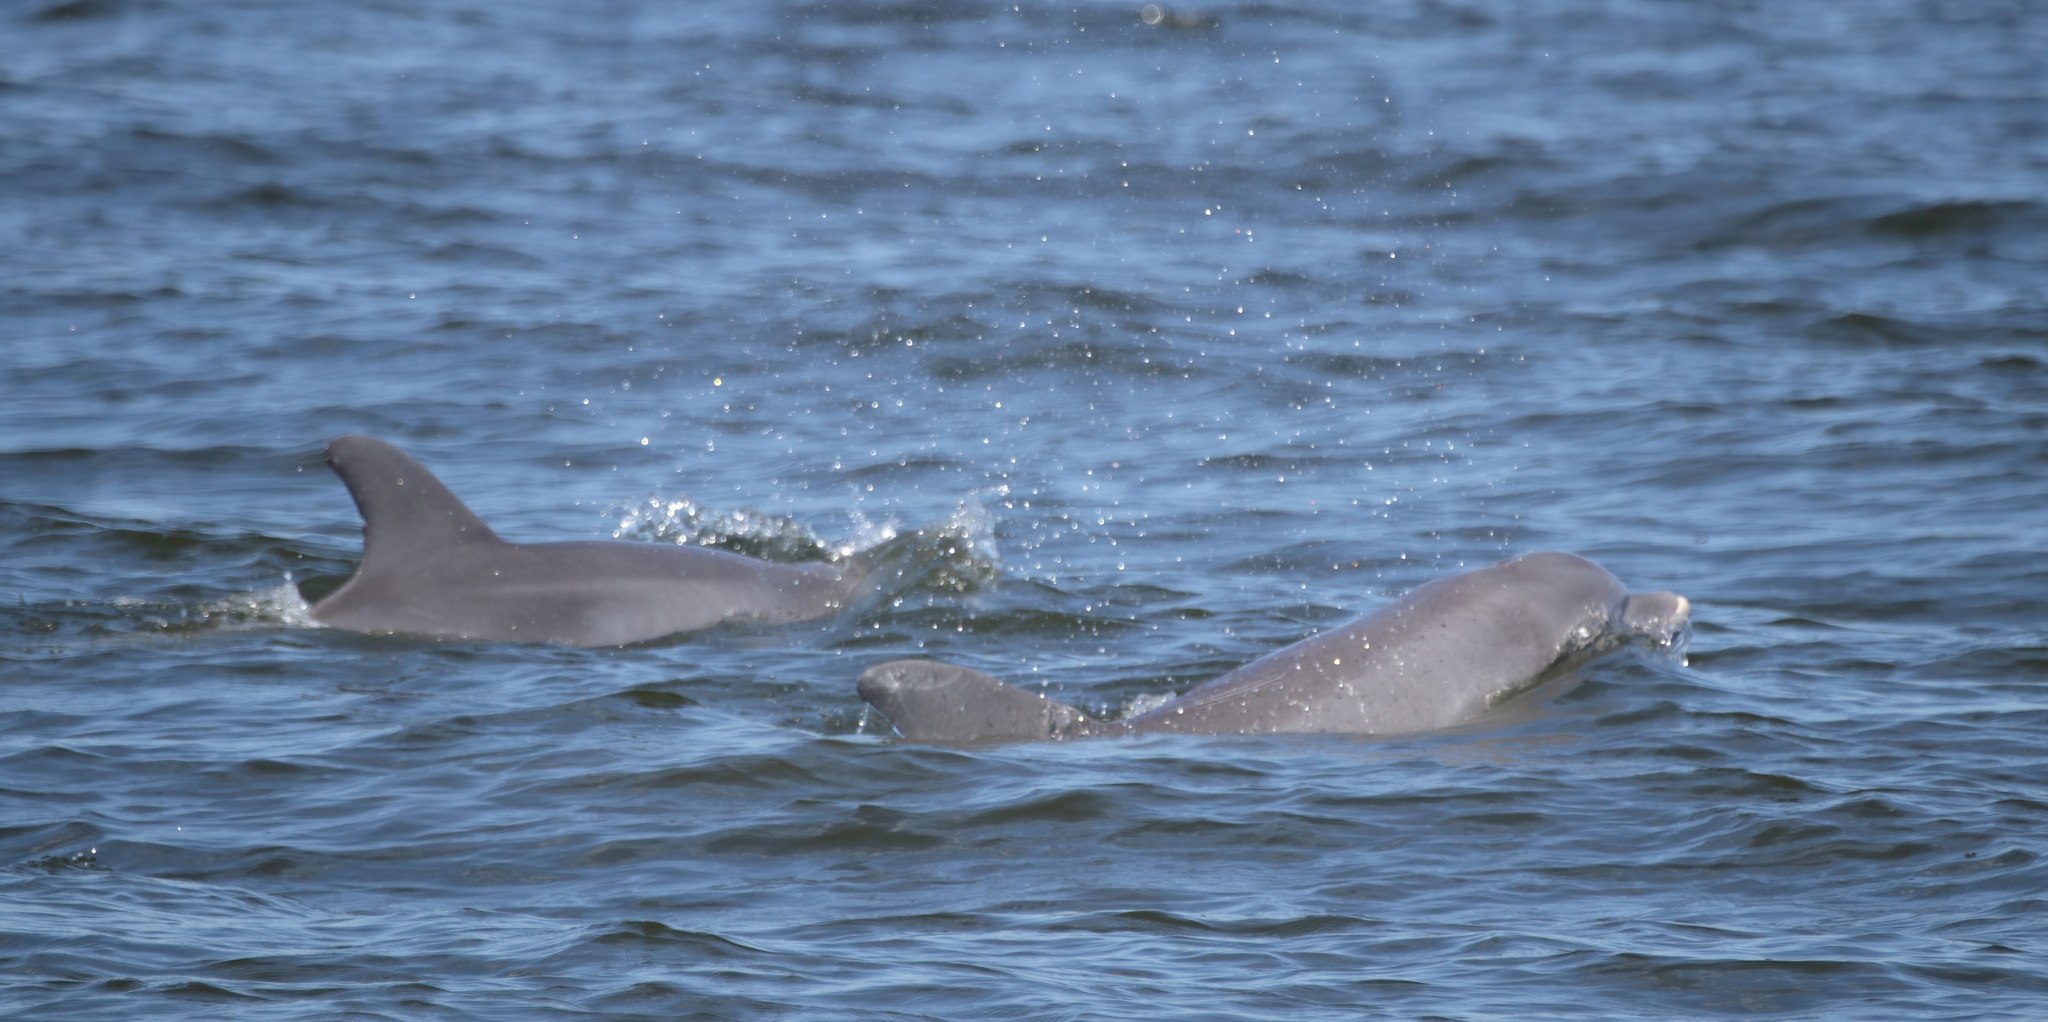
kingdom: Animalia
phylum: Chordata
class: Mammalia
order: Cetacea
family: Delphinidae
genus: Tursiops
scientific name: Tursiops truncatus
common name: Bottlenose dolphin
